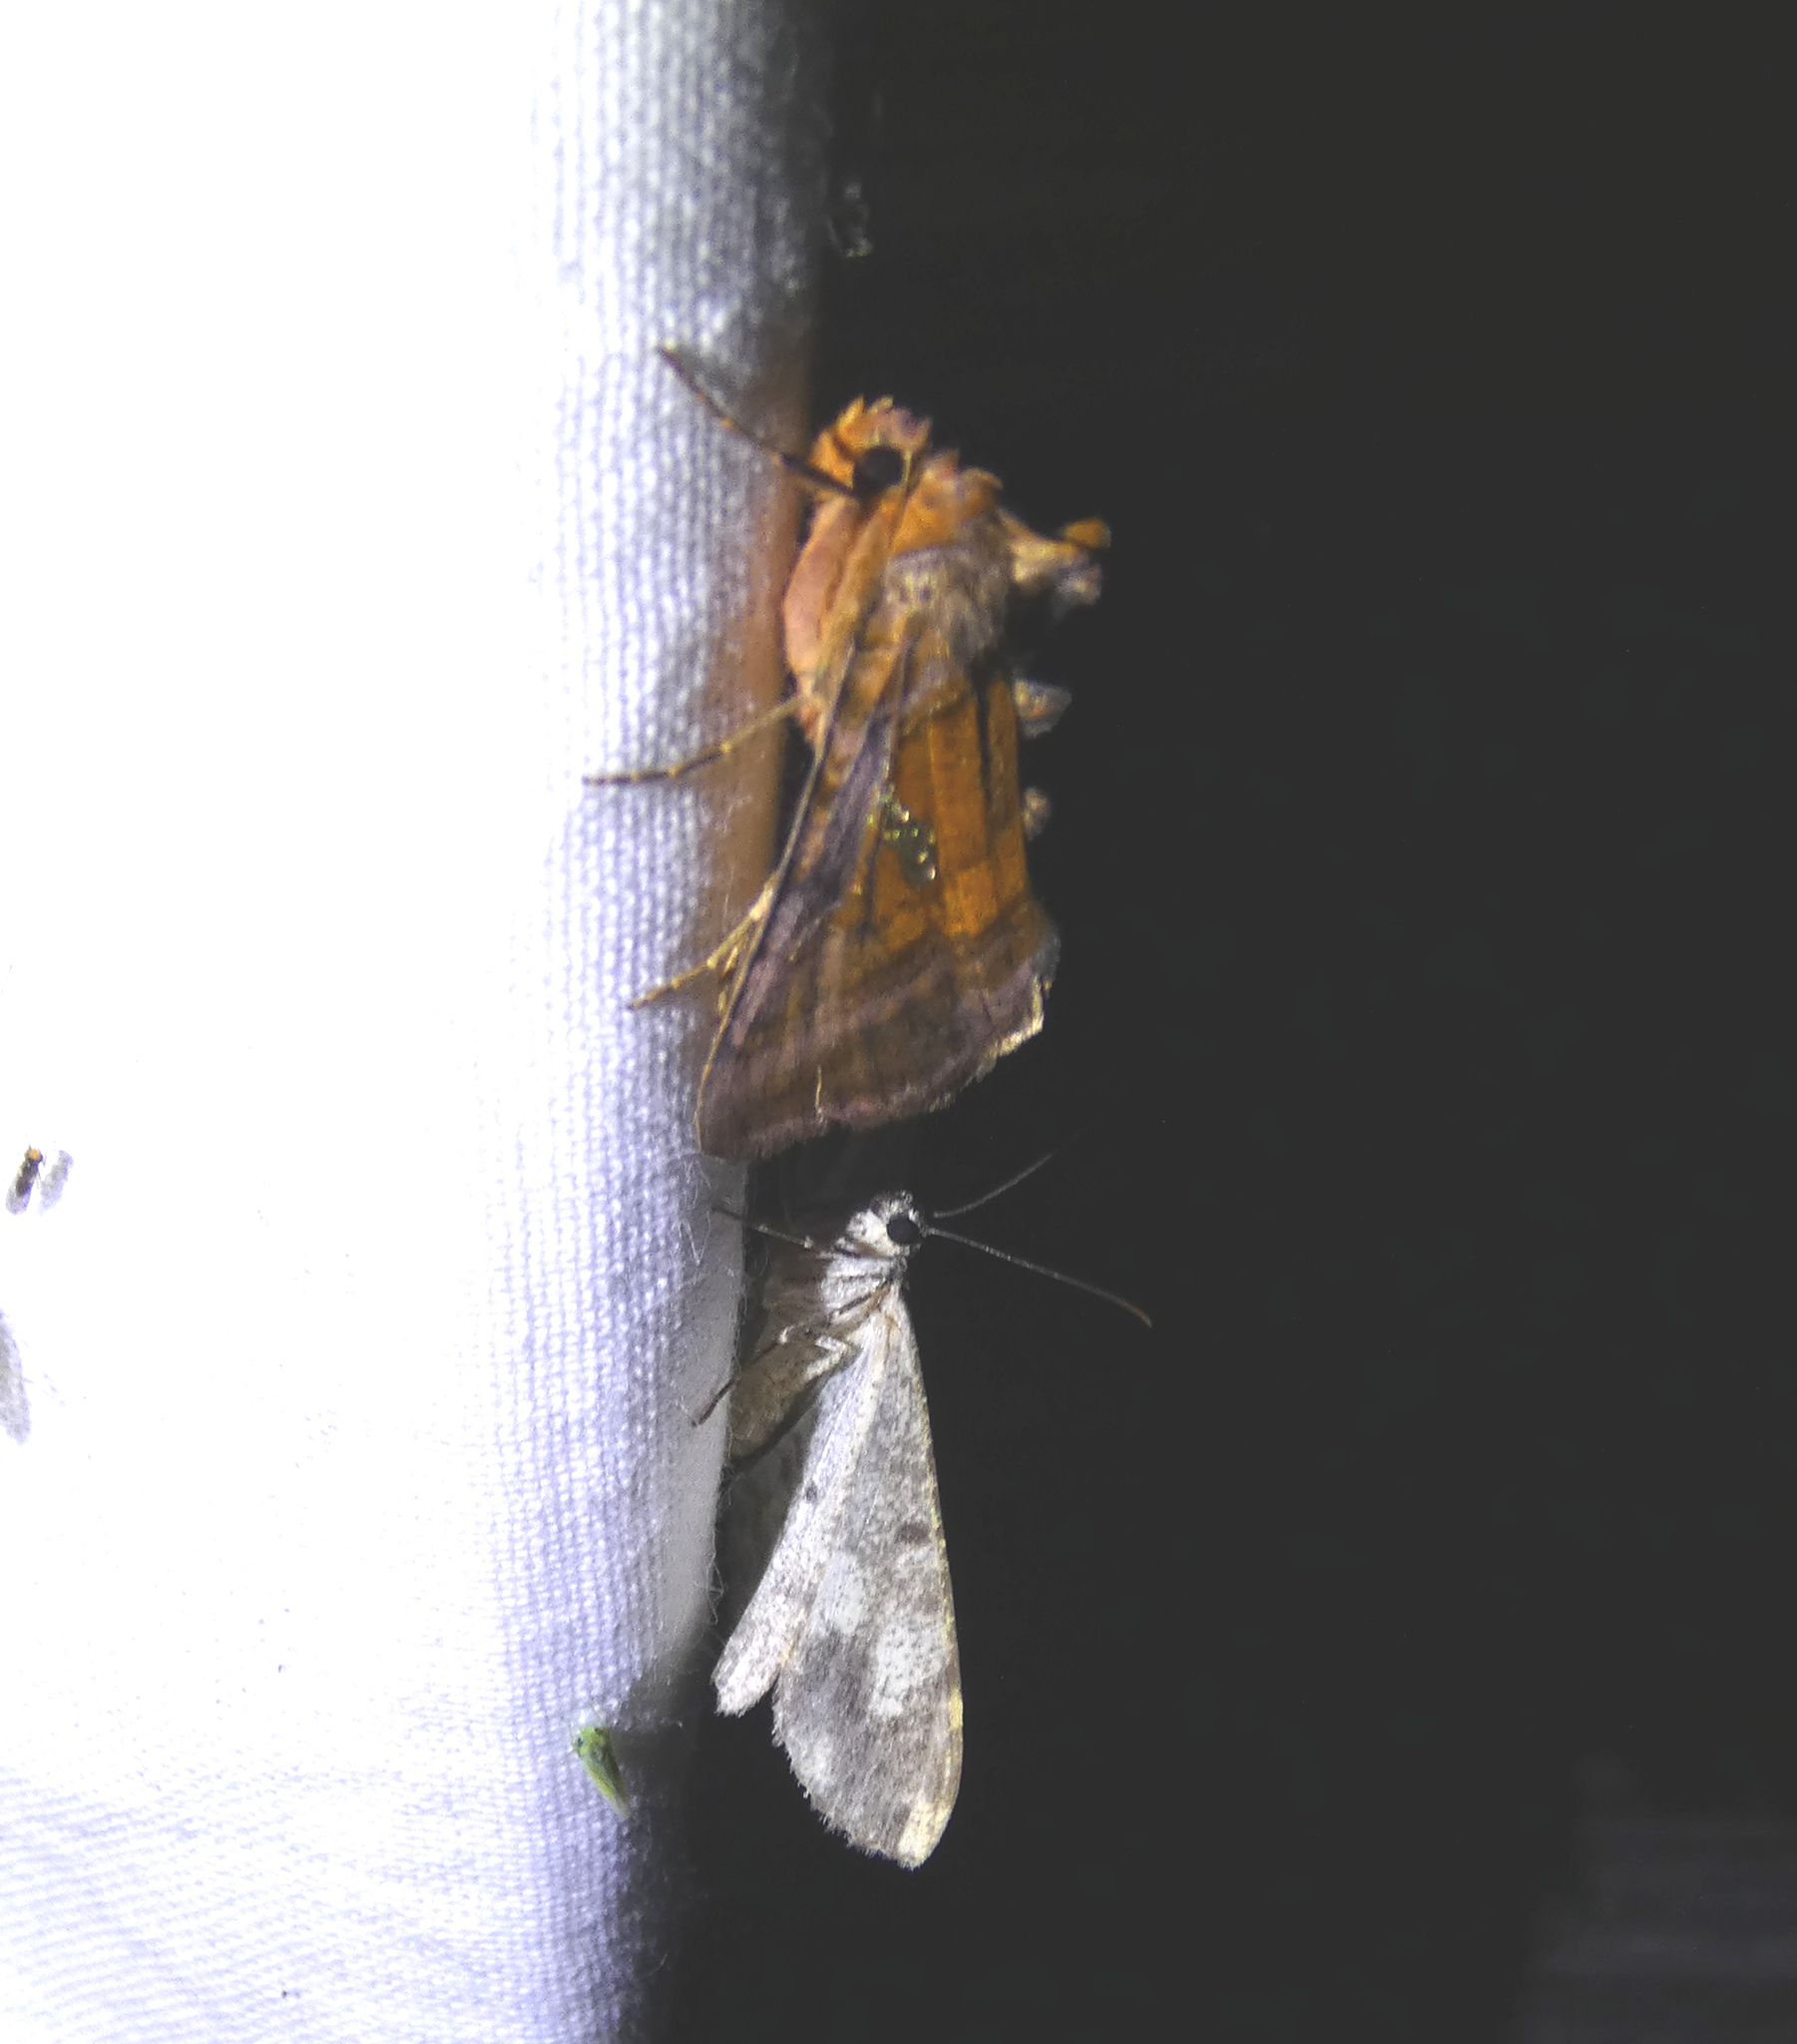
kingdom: Animalia
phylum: Arthropoda
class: Insecta
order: Lepidoptera
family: Noctuidae
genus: Autographa
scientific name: Autographa excelsa
